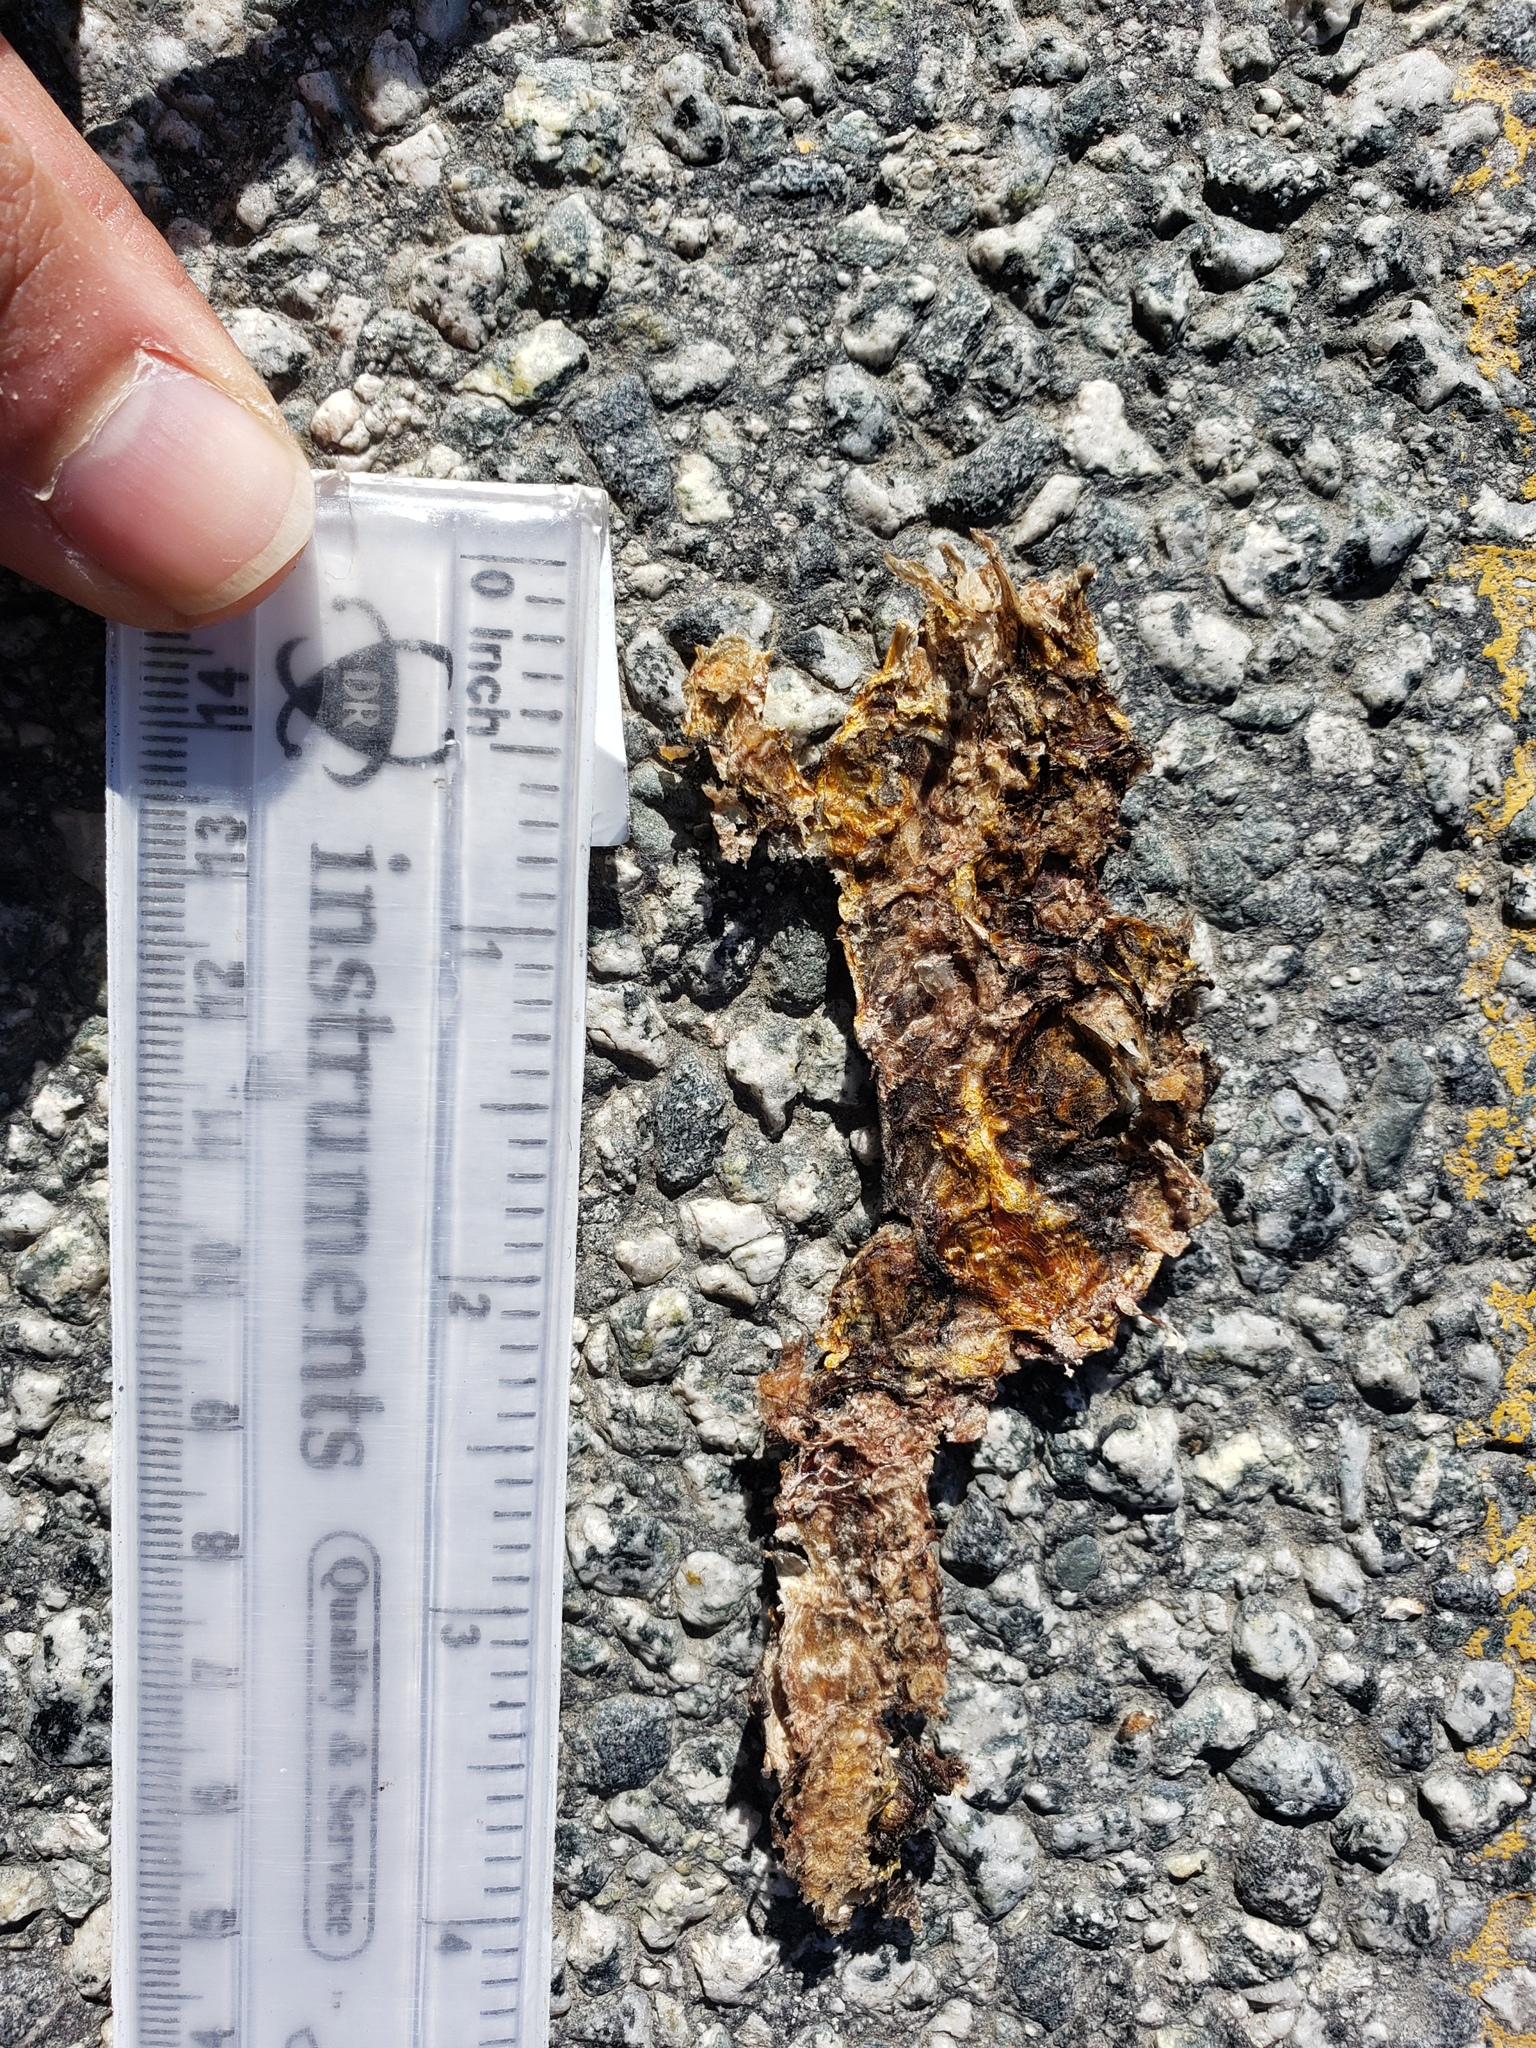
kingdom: Animalia
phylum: Chordata
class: Amphibia
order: Caudata
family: Salamandridae
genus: Taricha
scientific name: Taricha
